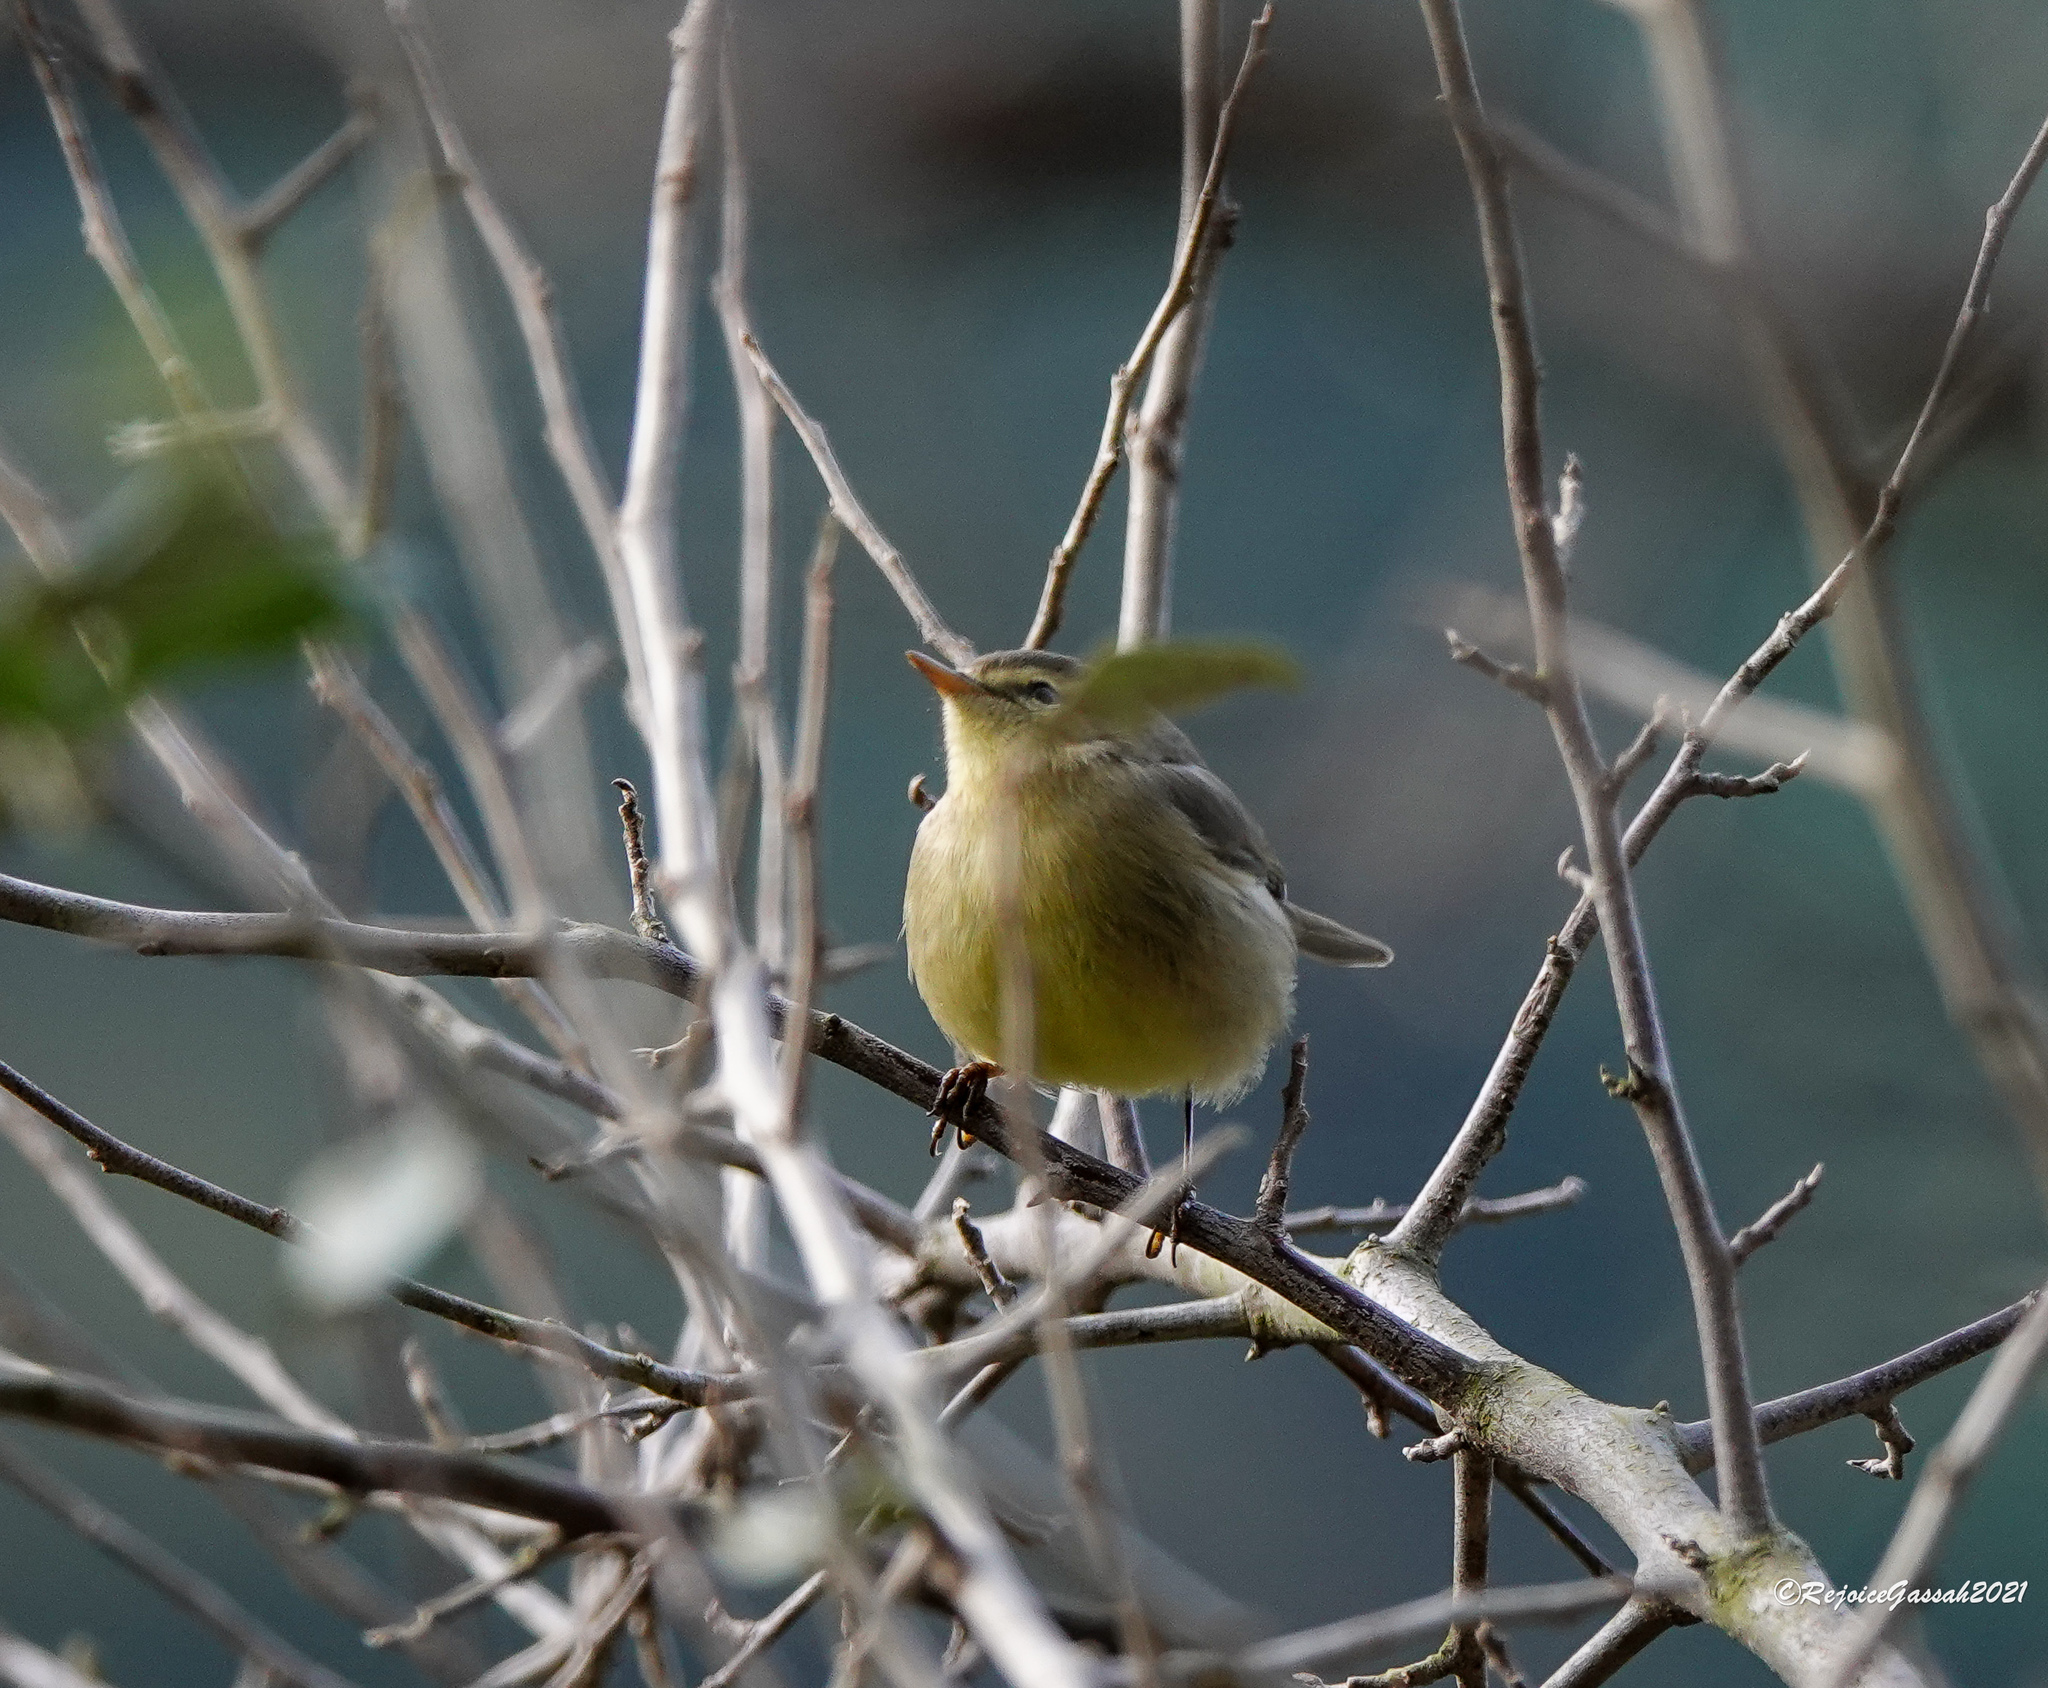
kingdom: Animalia
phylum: Chordata
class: Aves
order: Passeriformes
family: Phylloscopidae
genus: Phylloscopus
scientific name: Phylloscopus affinis
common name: Tickell's leaf warbler
